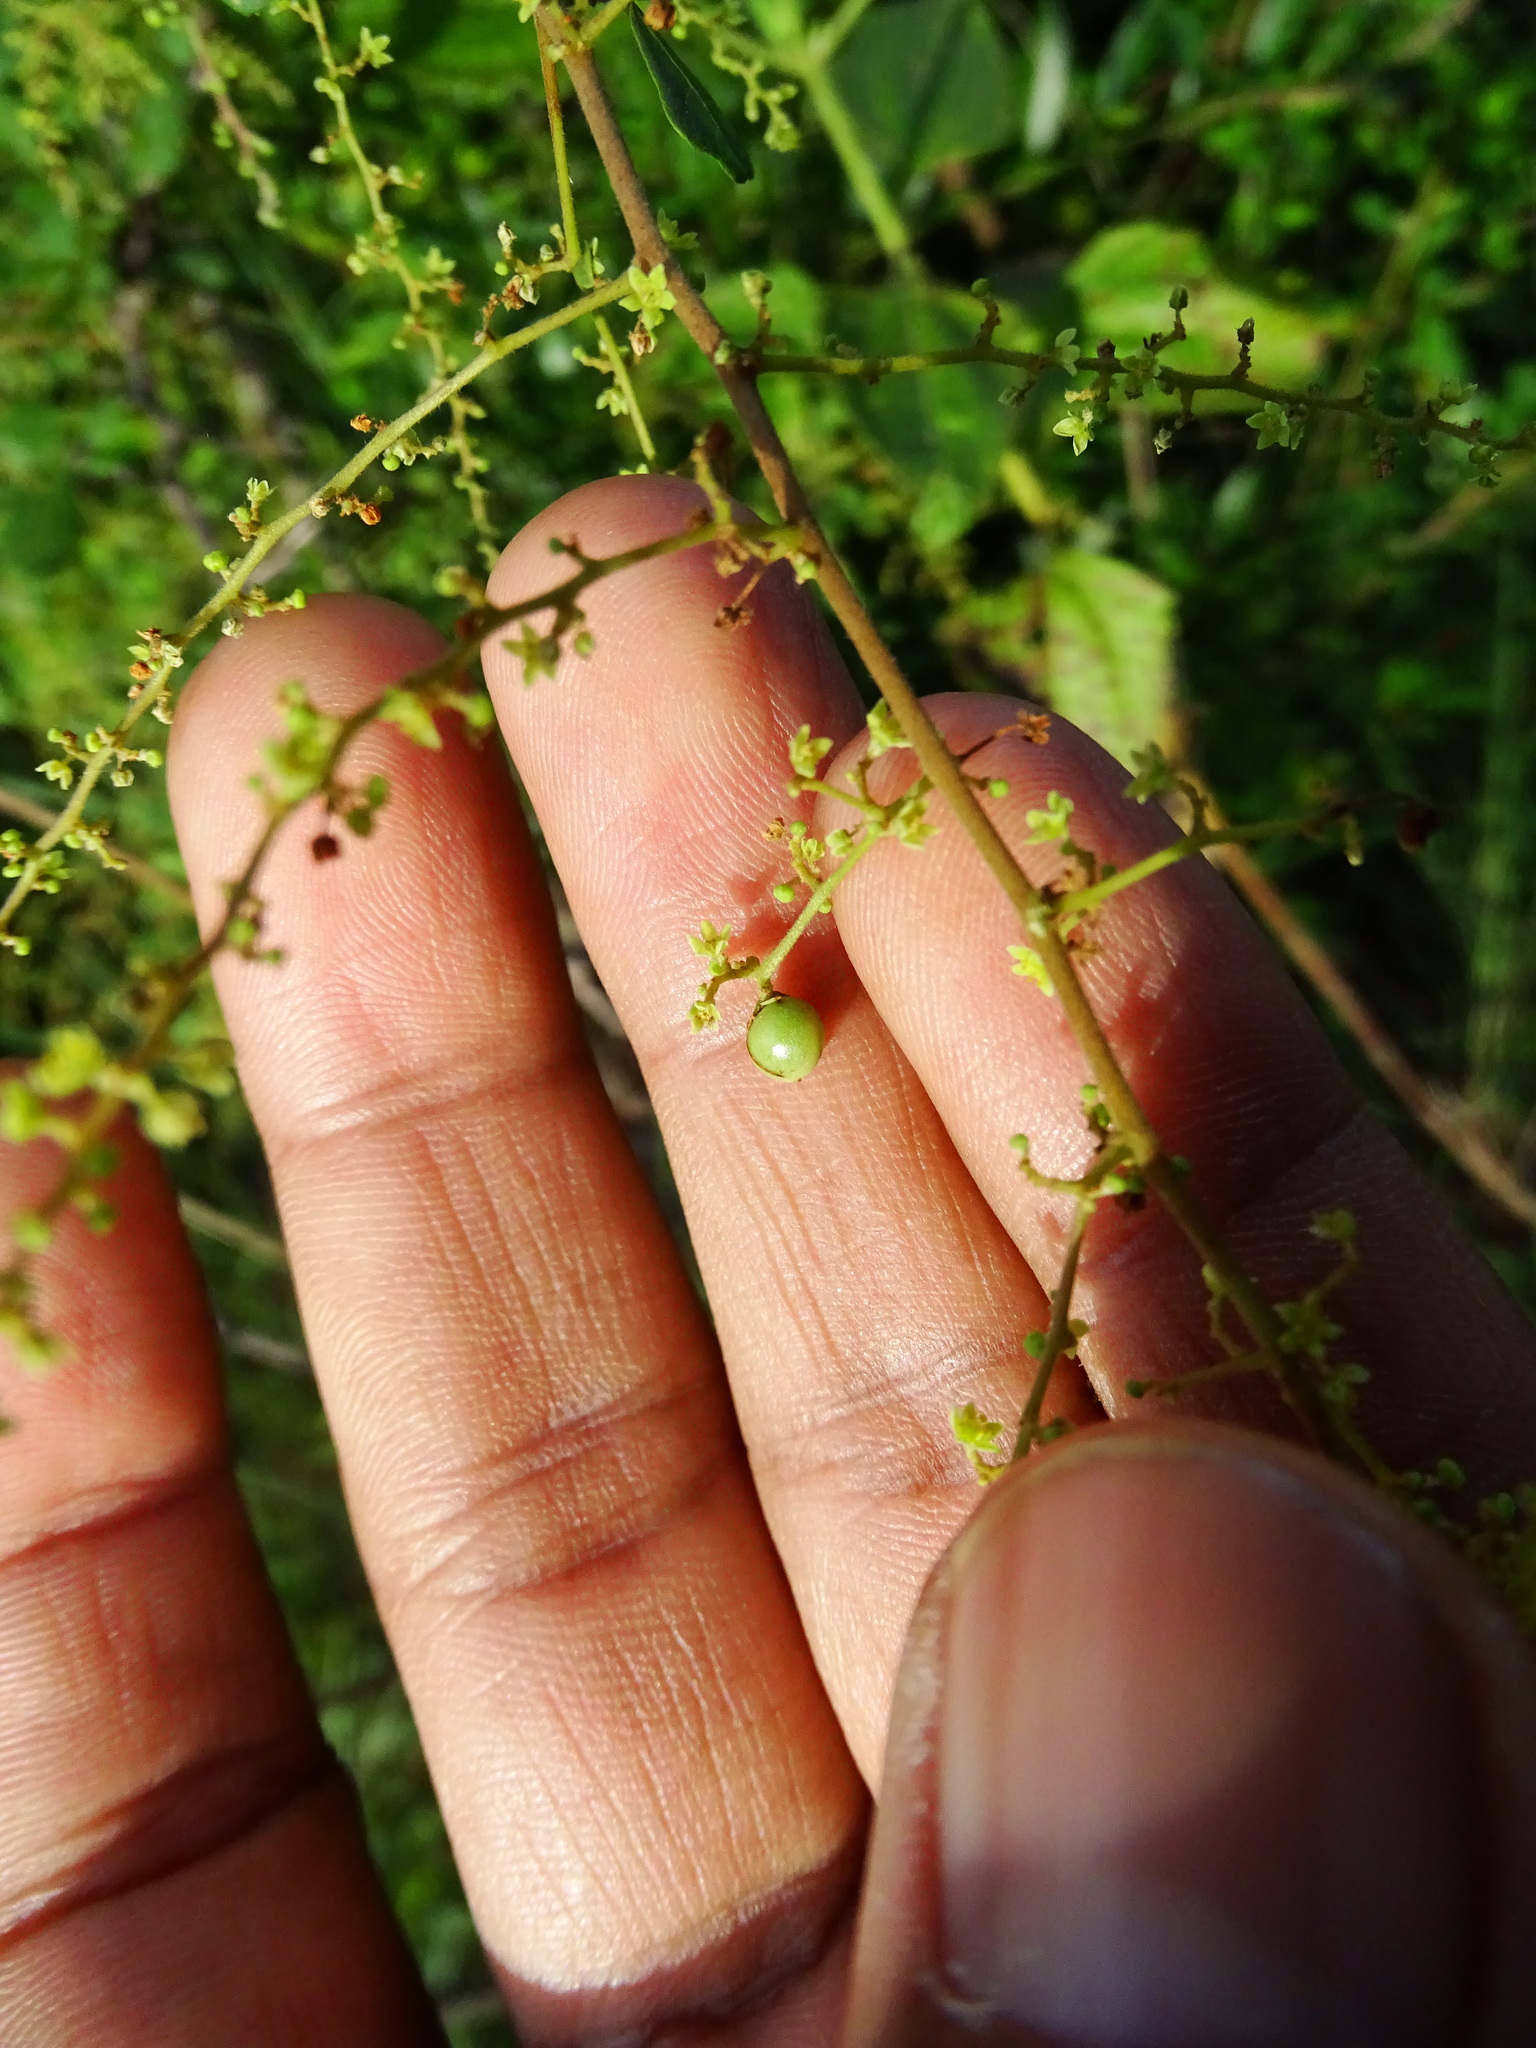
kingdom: Plantae
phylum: Tracheophyta
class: Magnoliopsida
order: Sapindales
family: Anacardiaceae
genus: Searsia
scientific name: Searsia mysorensis
